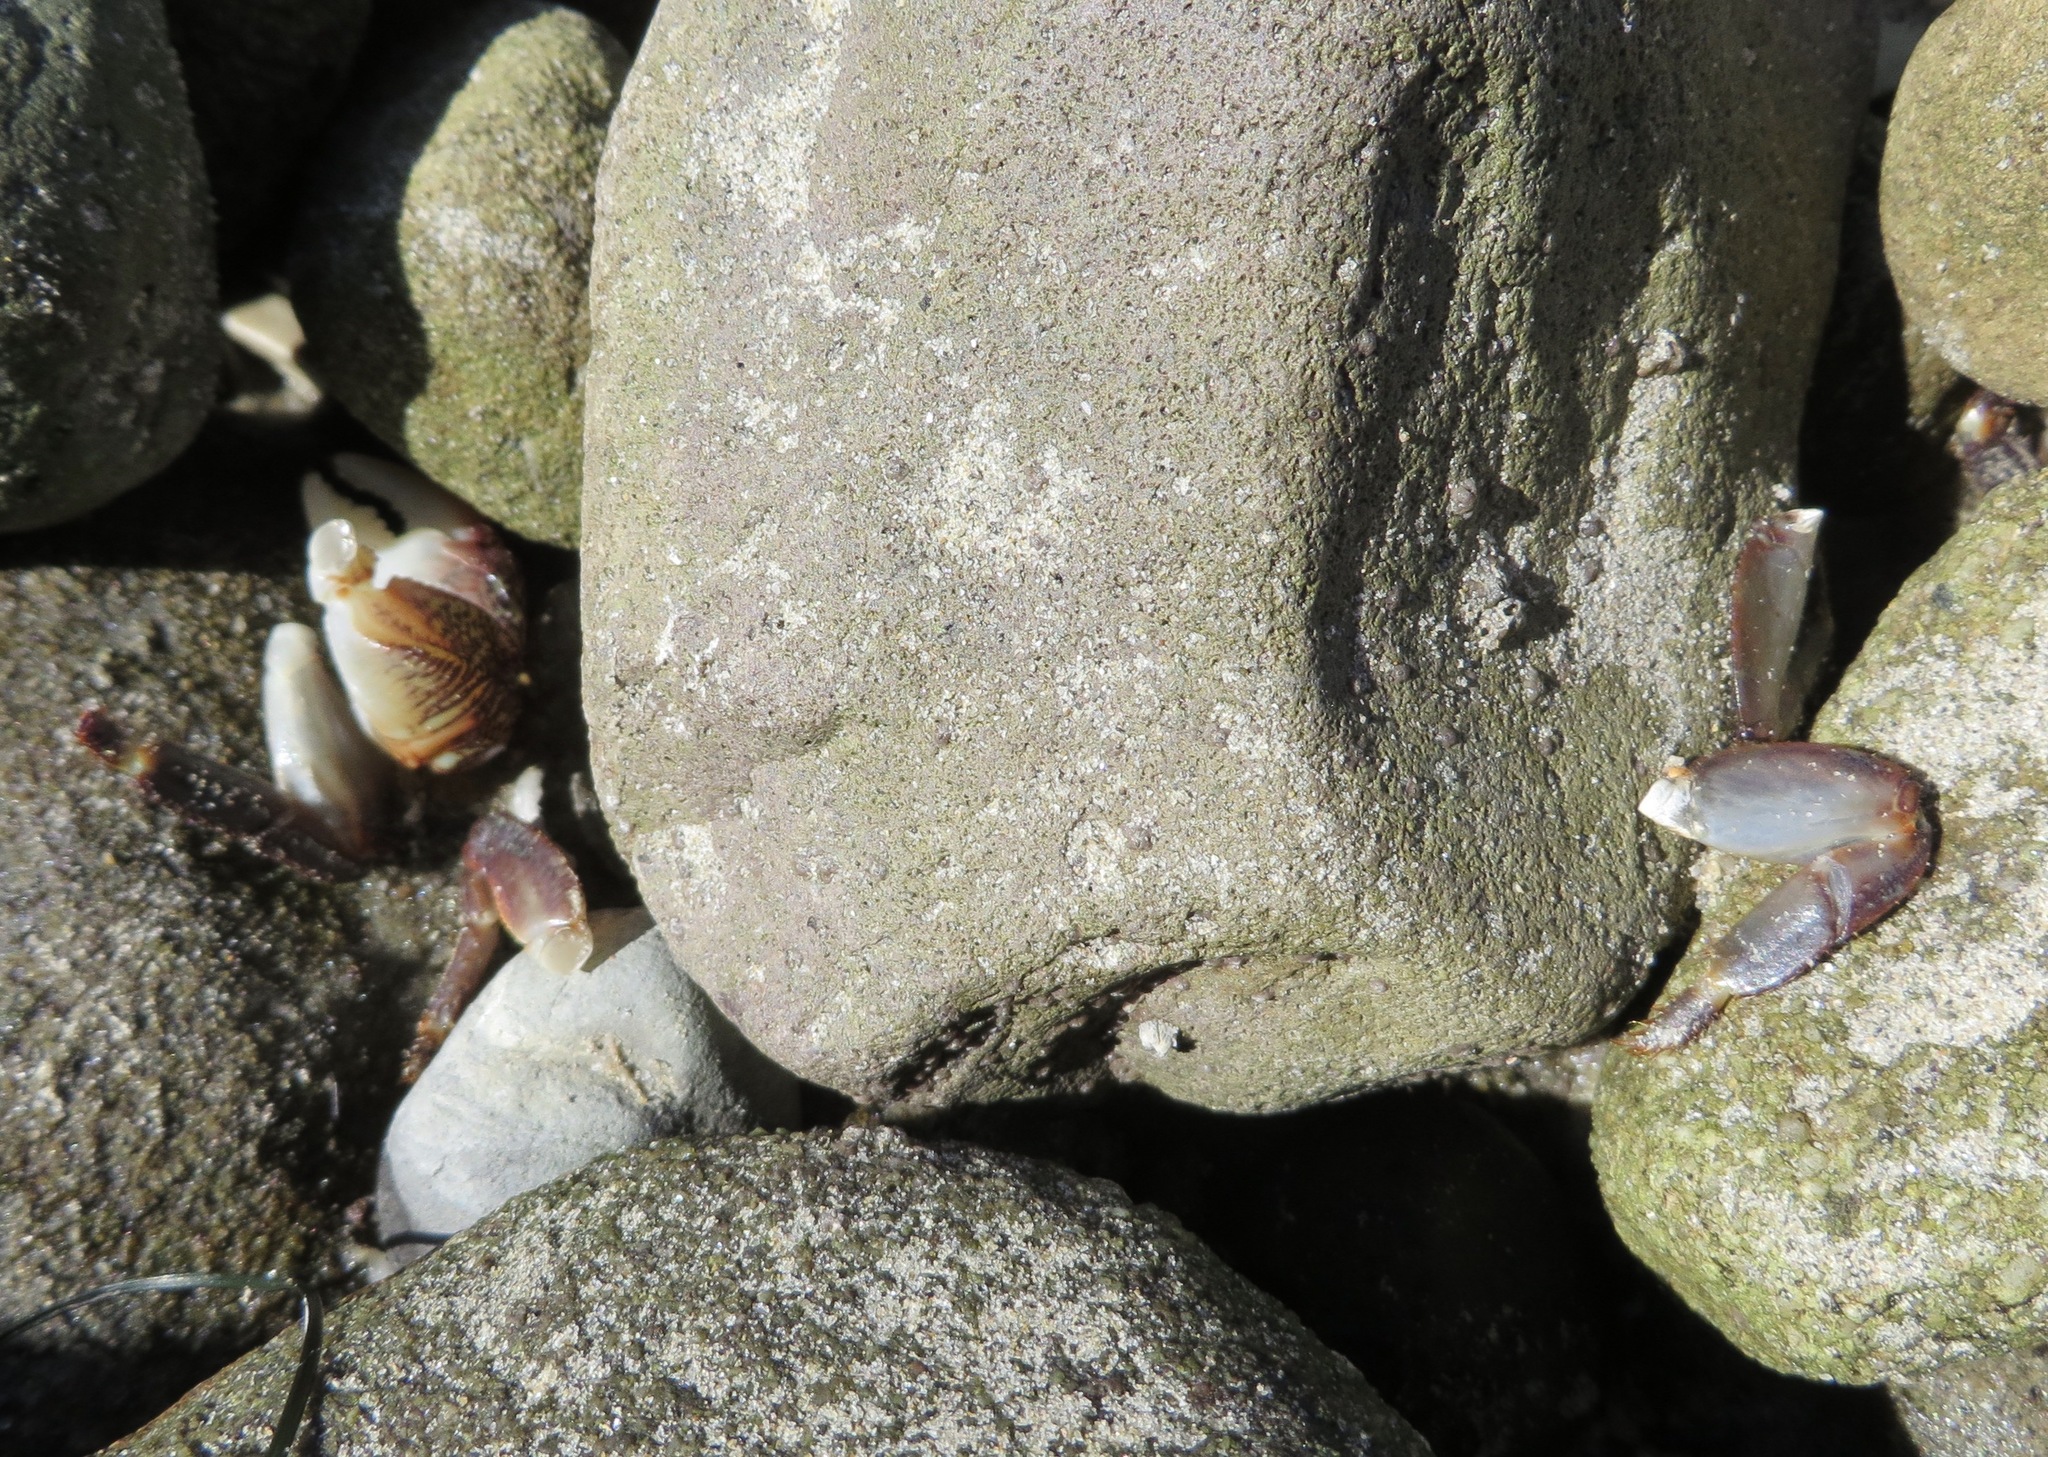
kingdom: Animalia
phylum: Arthropoda
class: Malacostraca
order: Decapoda
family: Grapsidae
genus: Pachygrapsus
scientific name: Pachygrapsus crassipes
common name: Striped shore crab
